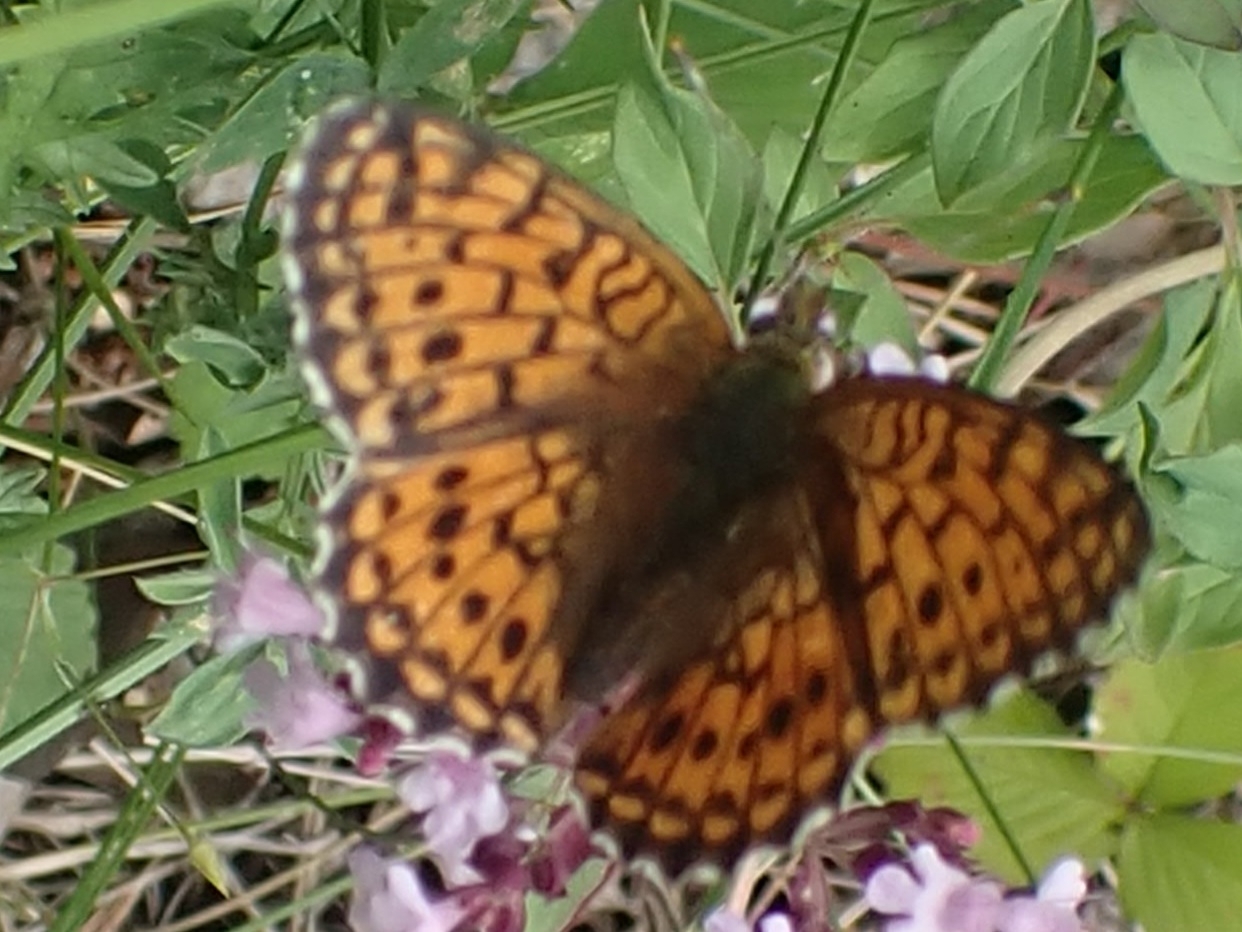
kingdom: Animalia
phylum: Arthropoda
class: Insecta
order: Lepidoptera
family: Nymphalidae
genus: Brenthis
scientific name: Brenthis ino
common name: Lesser marbled fritillary
